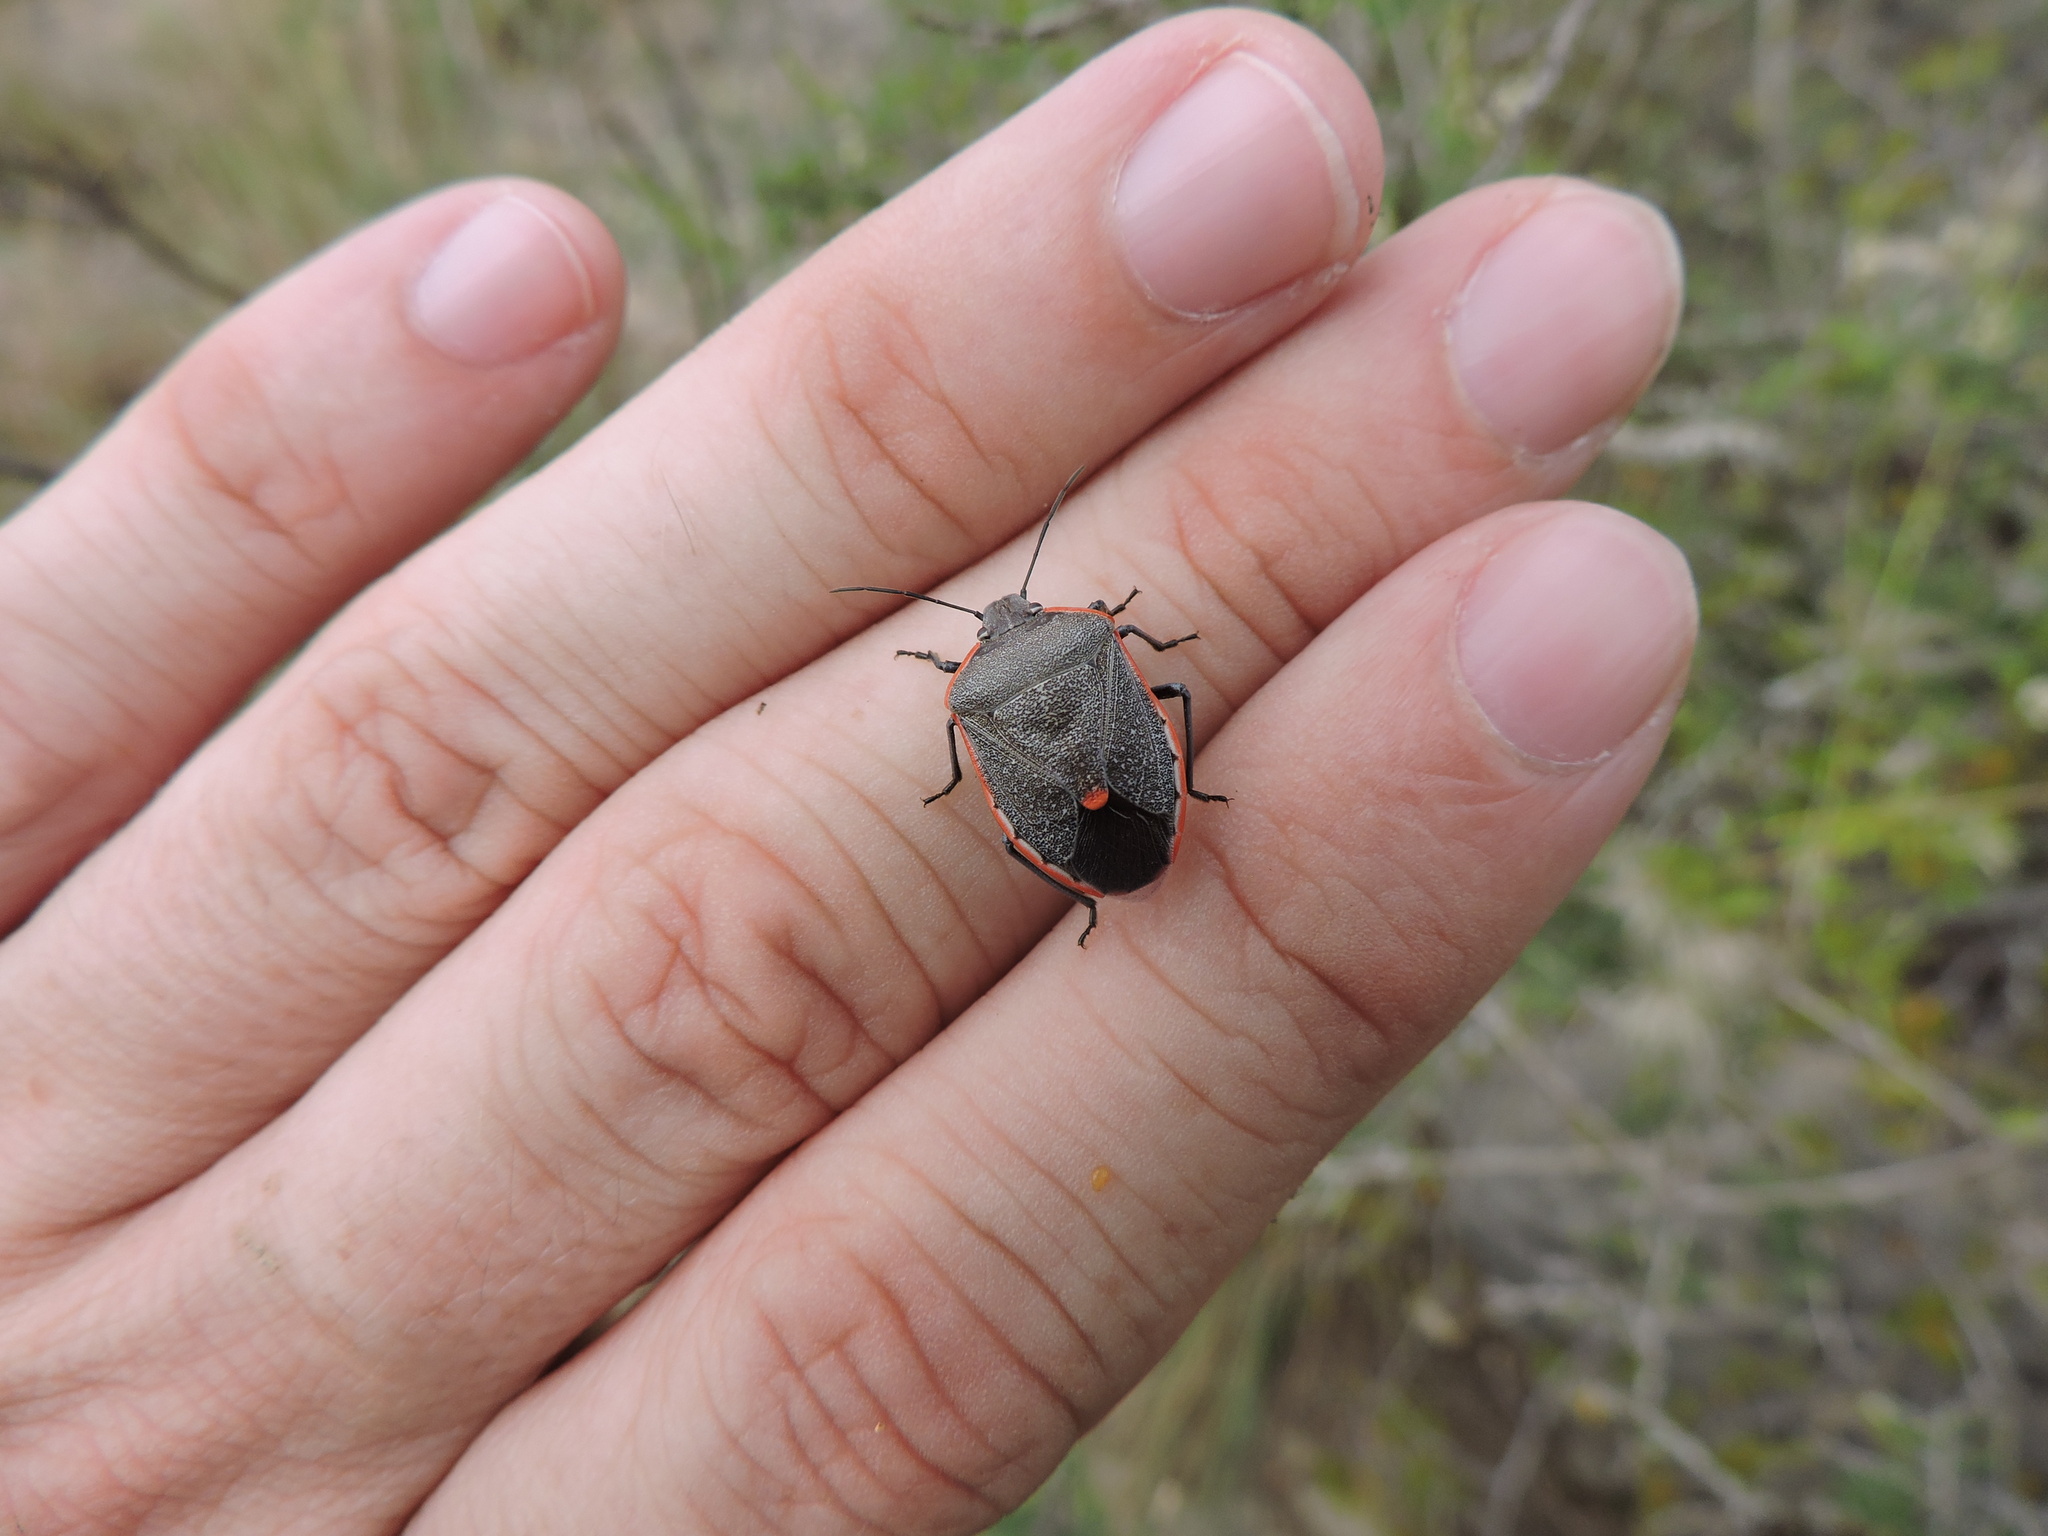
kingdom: Animalia
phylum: Arthropoda
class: Insecta
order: Hemiptera
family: Pentatomidae
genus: Chlorochroa
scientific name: Chlorochroa ligata
